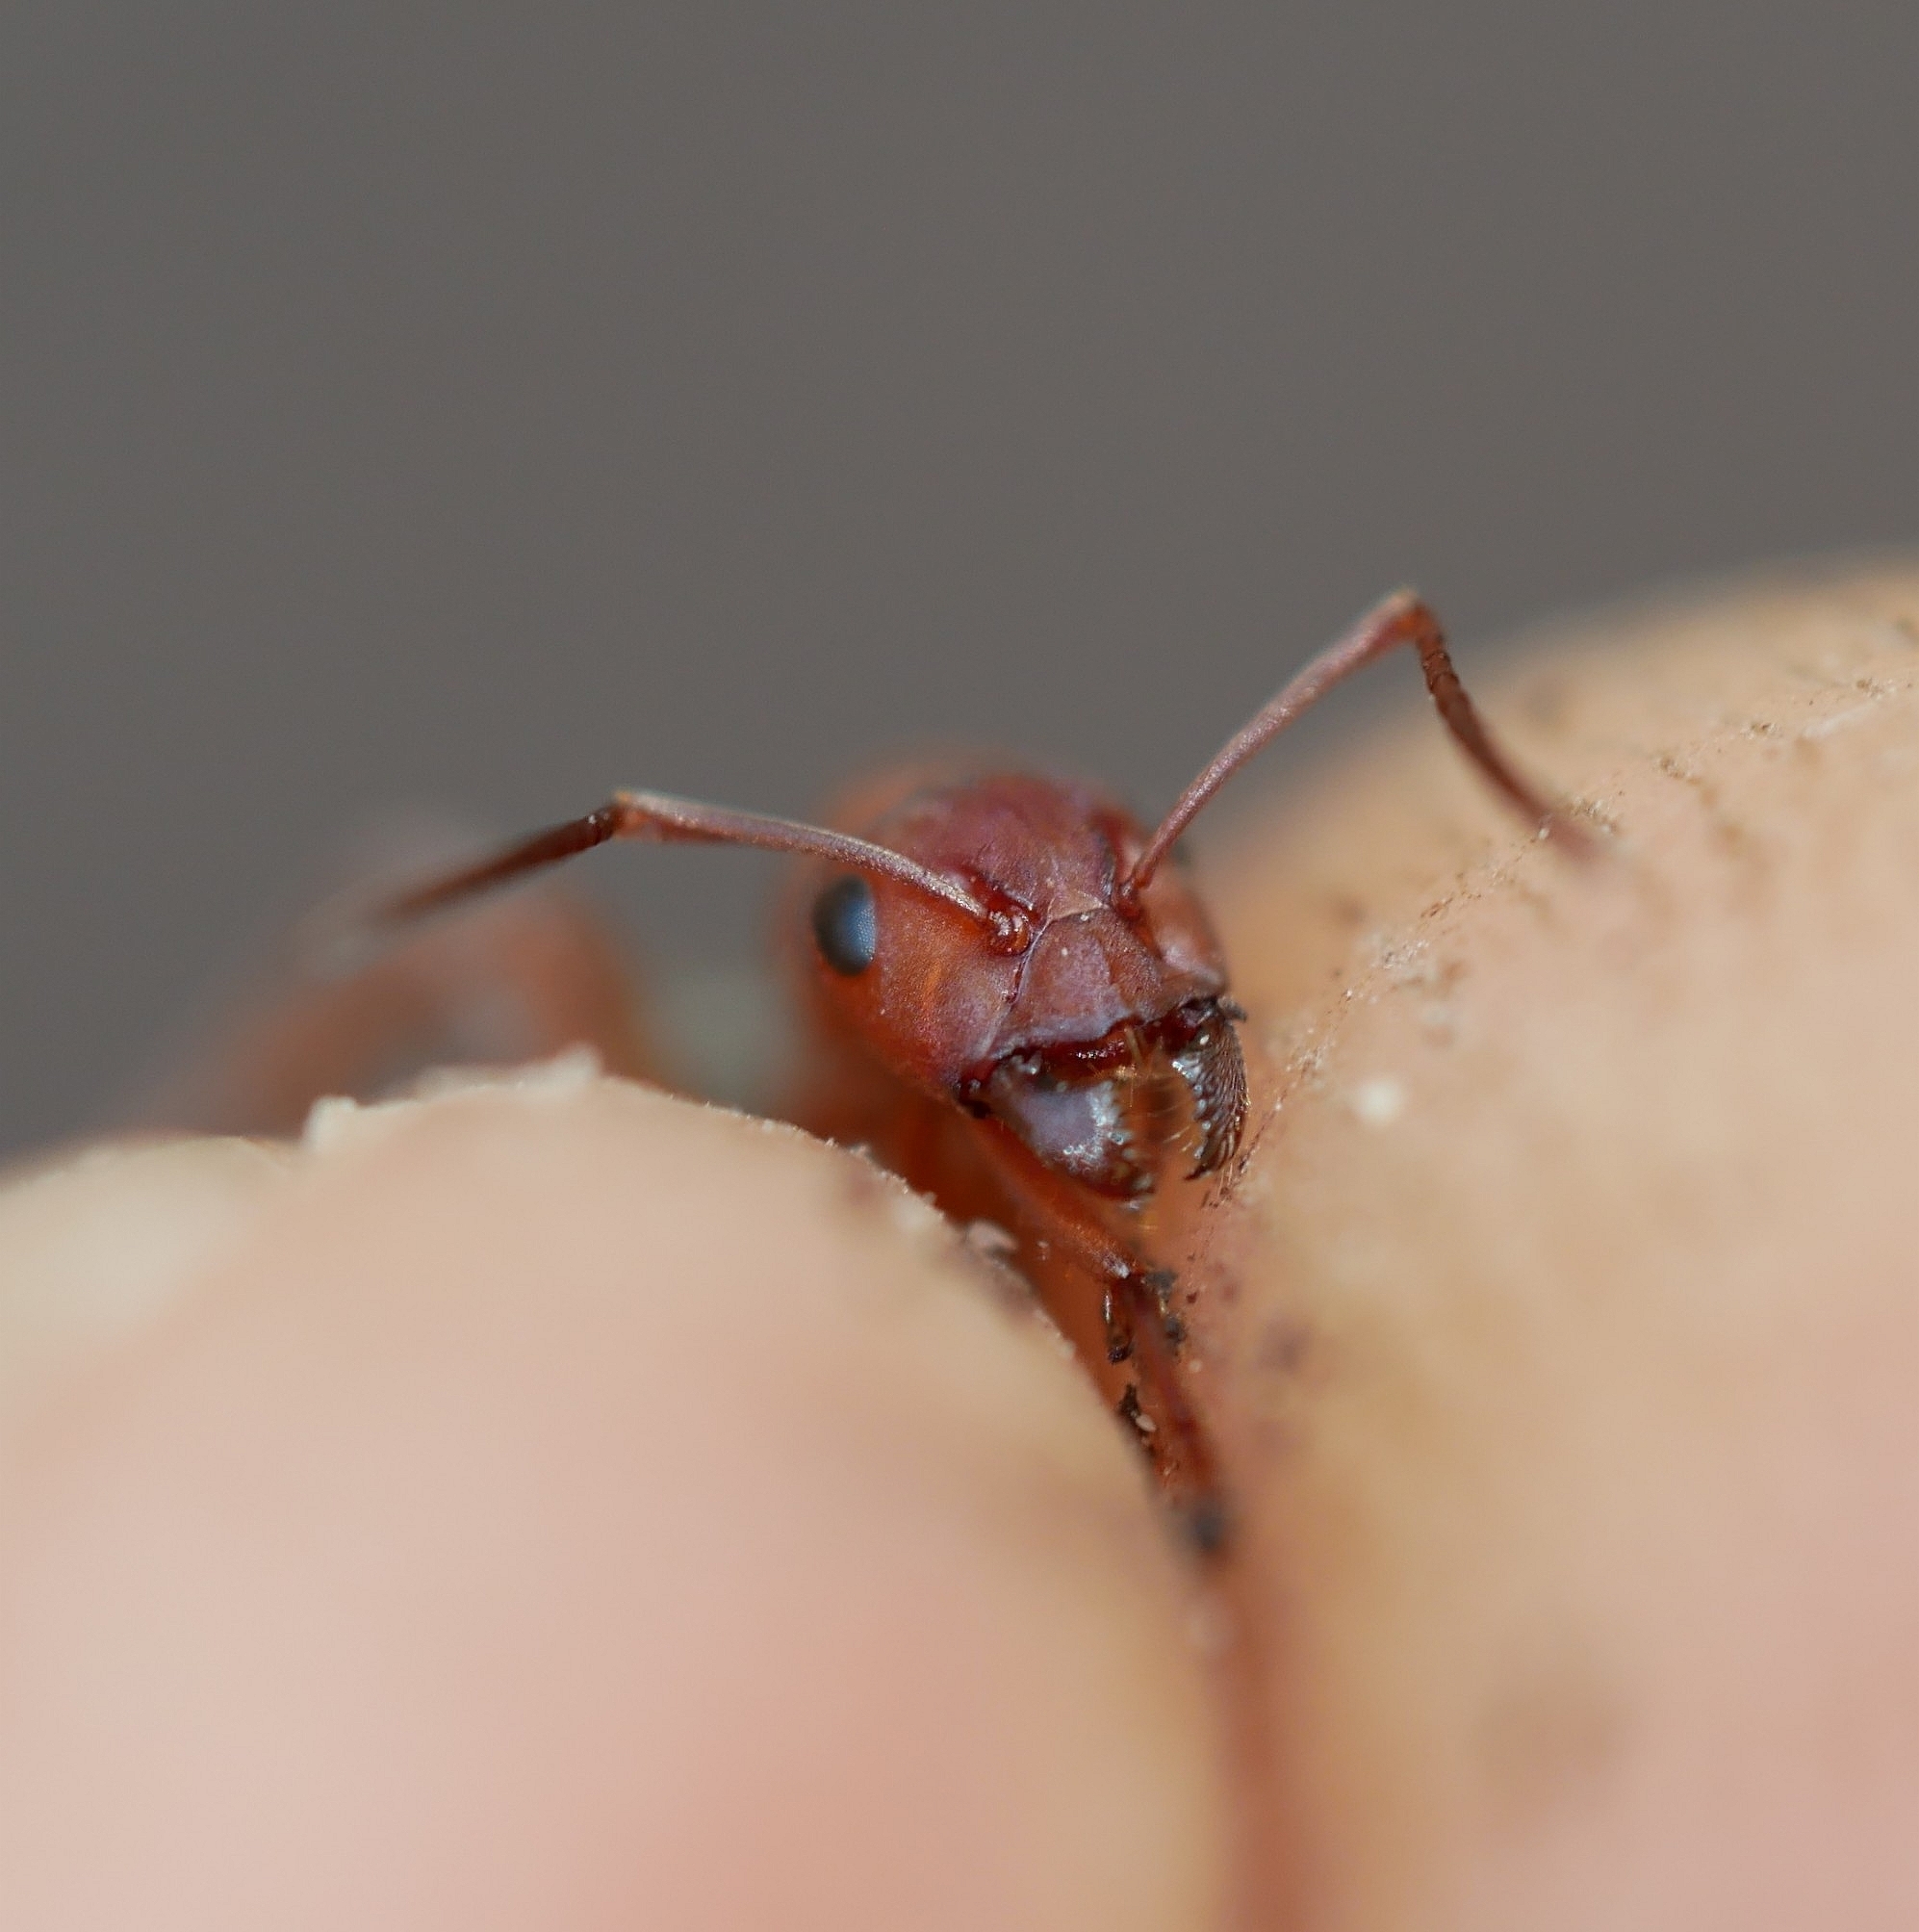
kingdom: Animalia
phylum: Arthropoda
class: Insecta
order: Hymenoptera
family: Formicidae
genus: Formica
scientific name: Formica aserva
